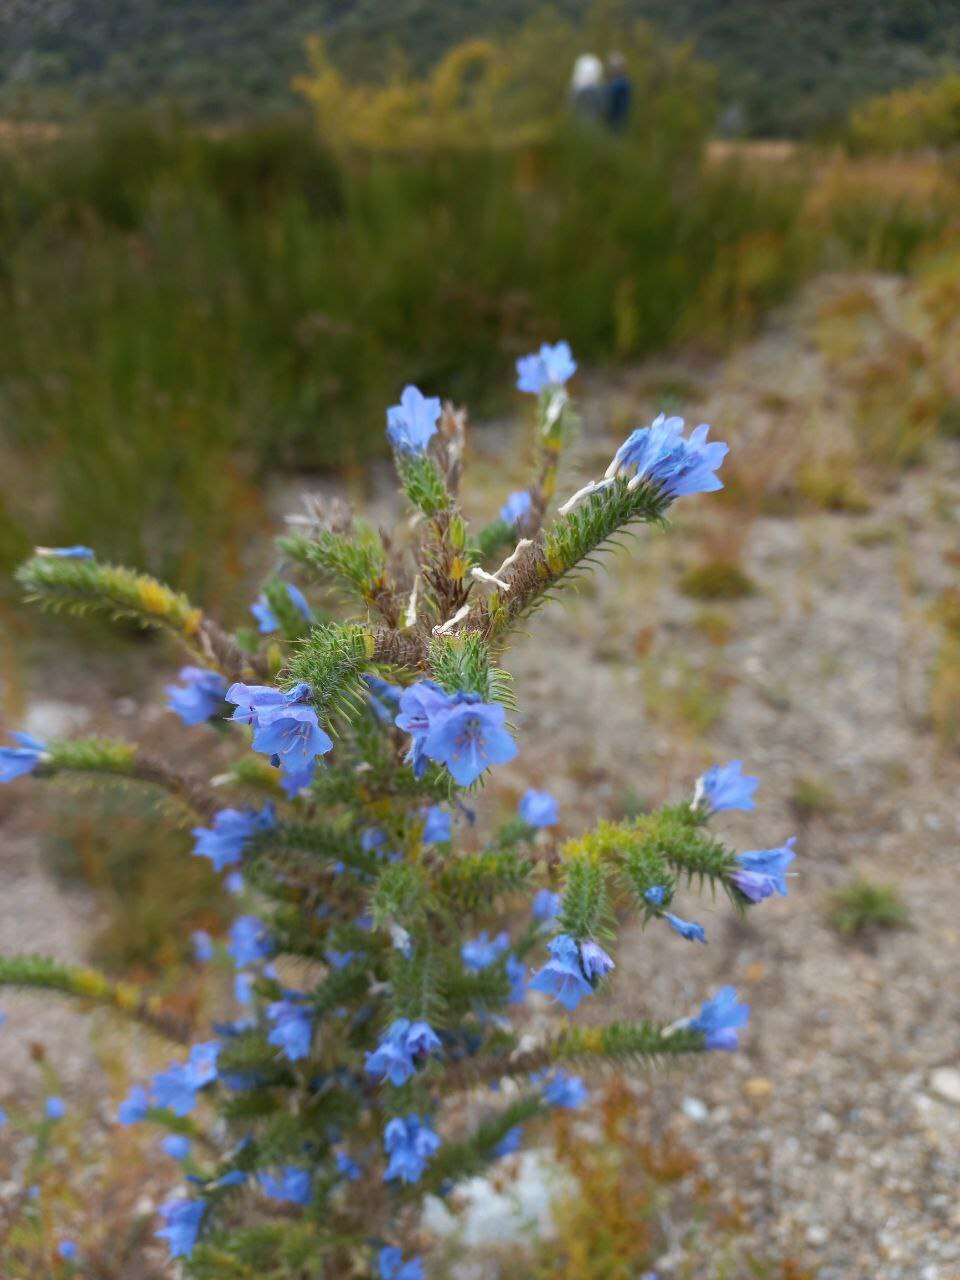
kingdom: Plantae
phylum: Tracheophyta
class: Magnoliopsida
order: Boraginales
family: Boraginaceae
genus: Echium
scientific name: Echium vulgare
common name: Common viper's bugloss
